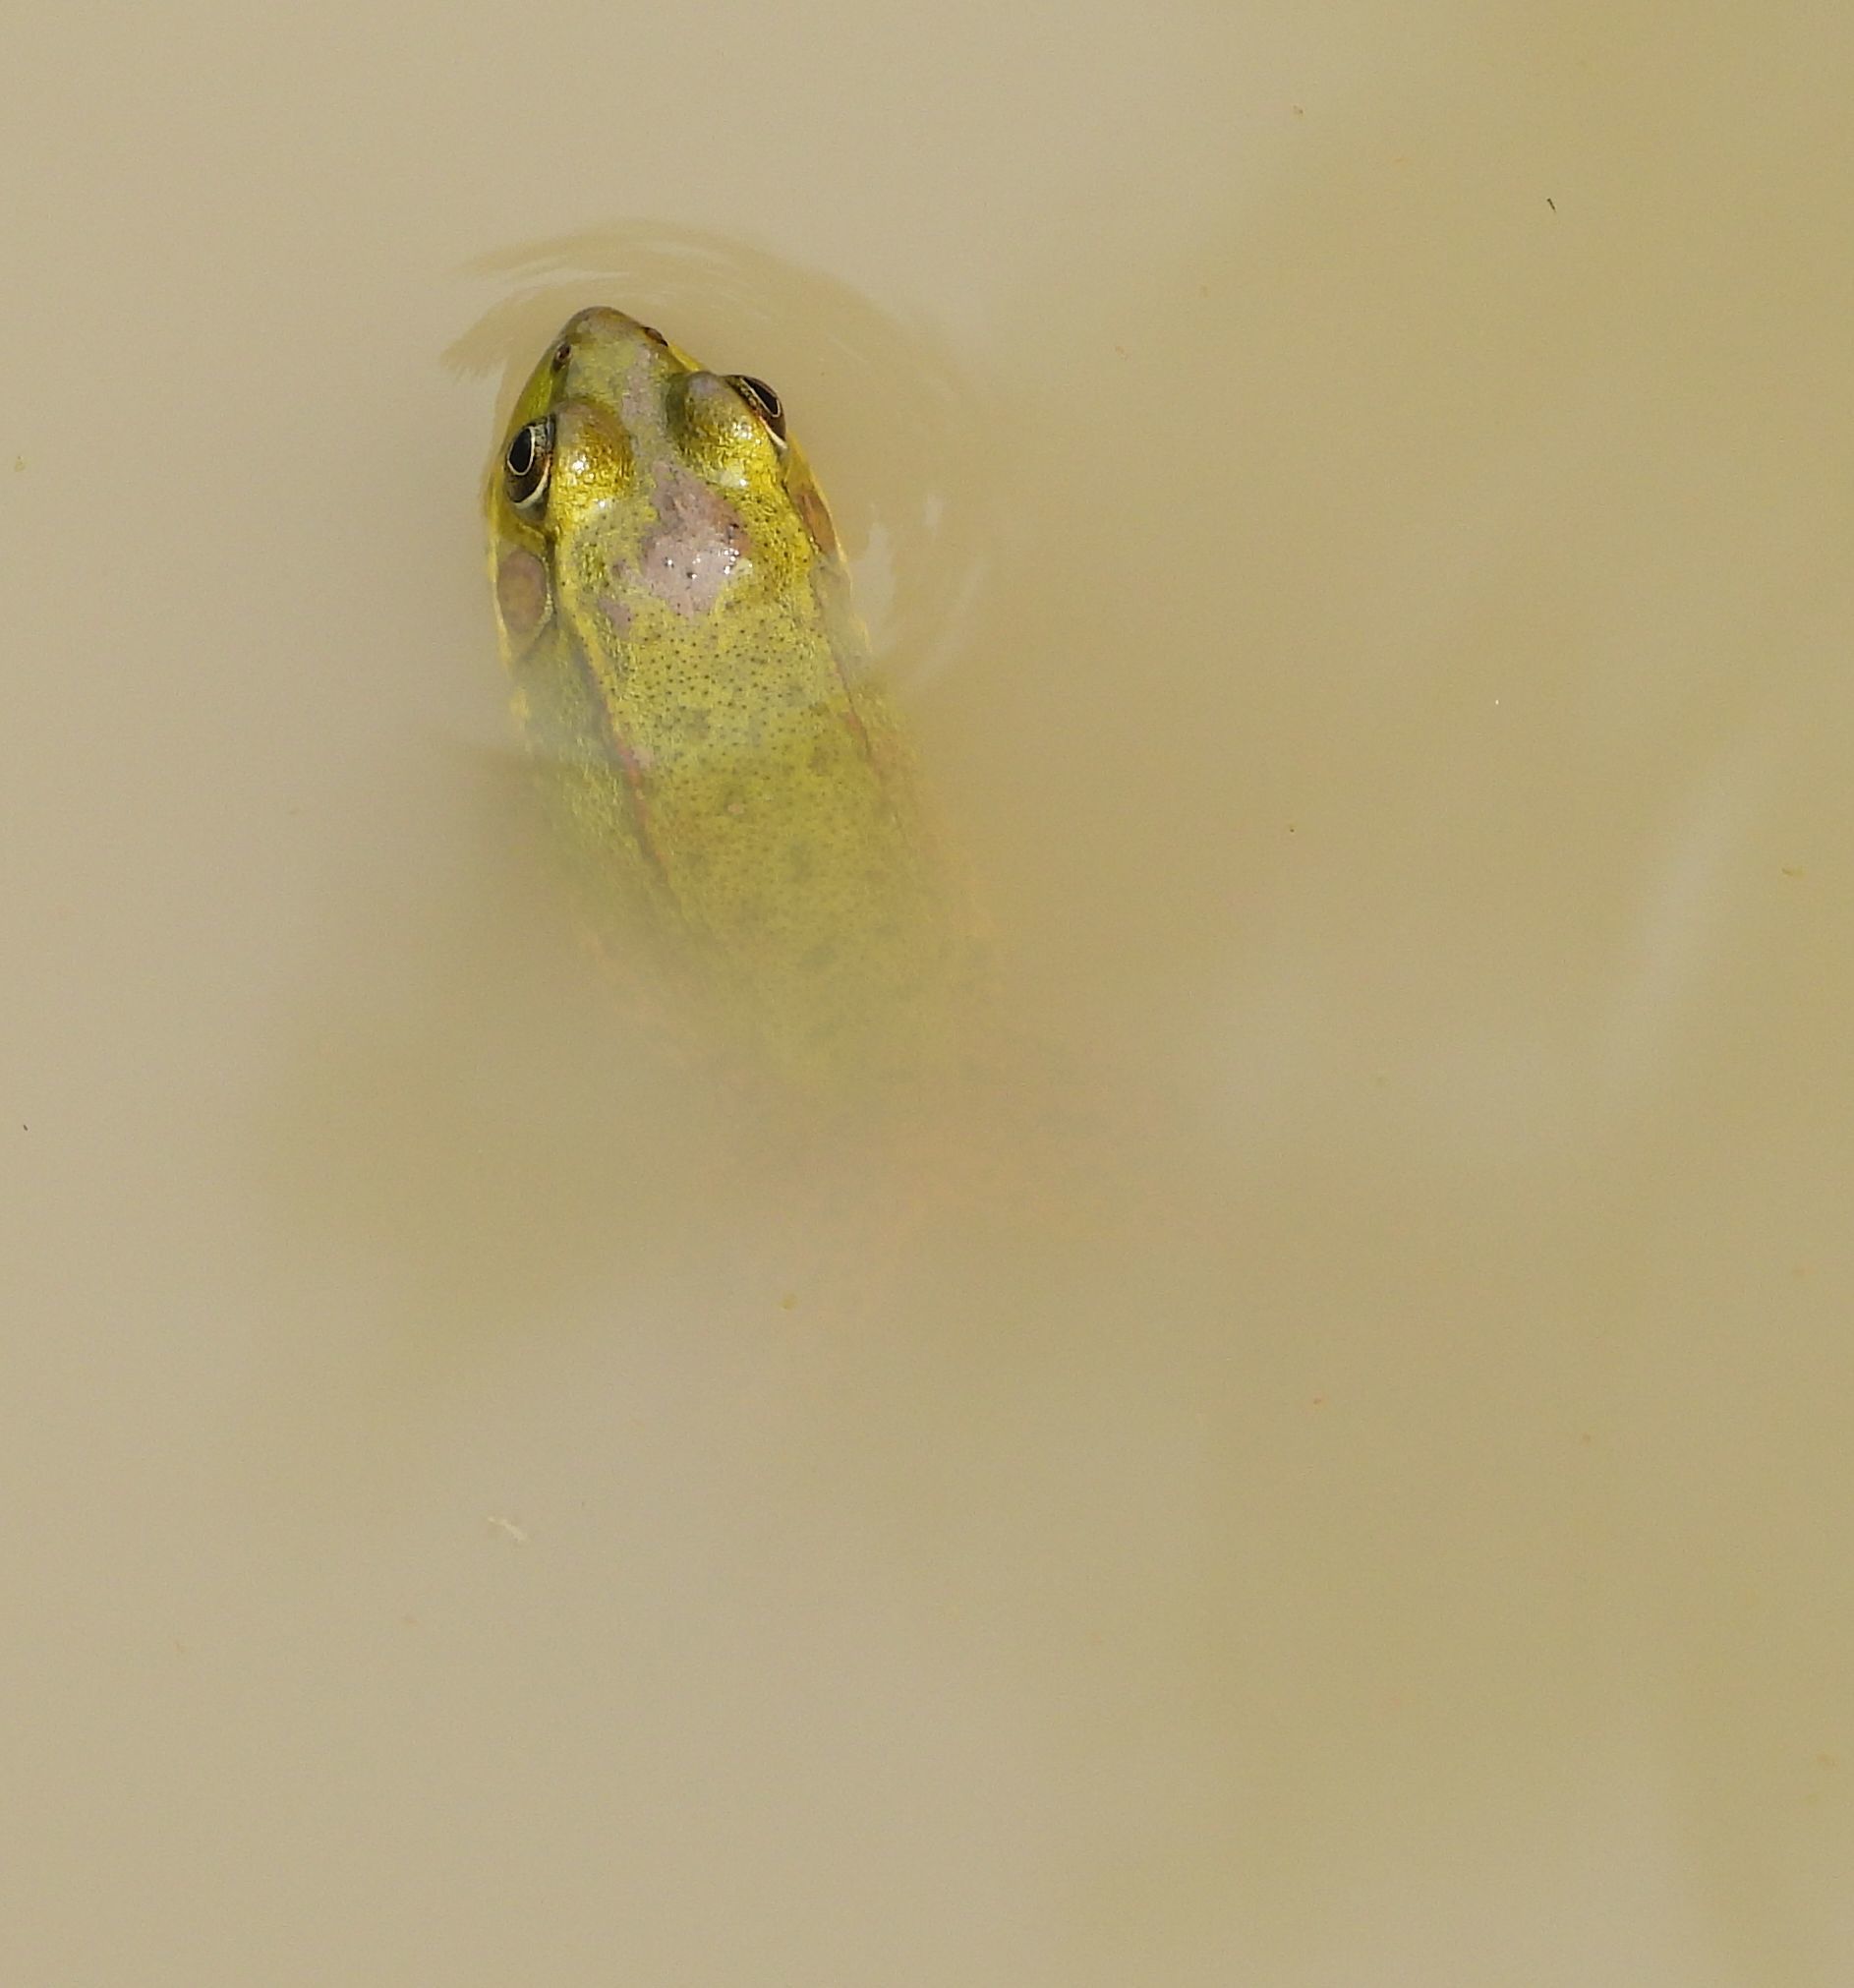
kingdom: Animalia
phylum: Chordata
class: Amphibia
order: Anura
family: Ranidae
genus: Lithobates
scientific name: Lithobates clamitans
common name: Green frog
